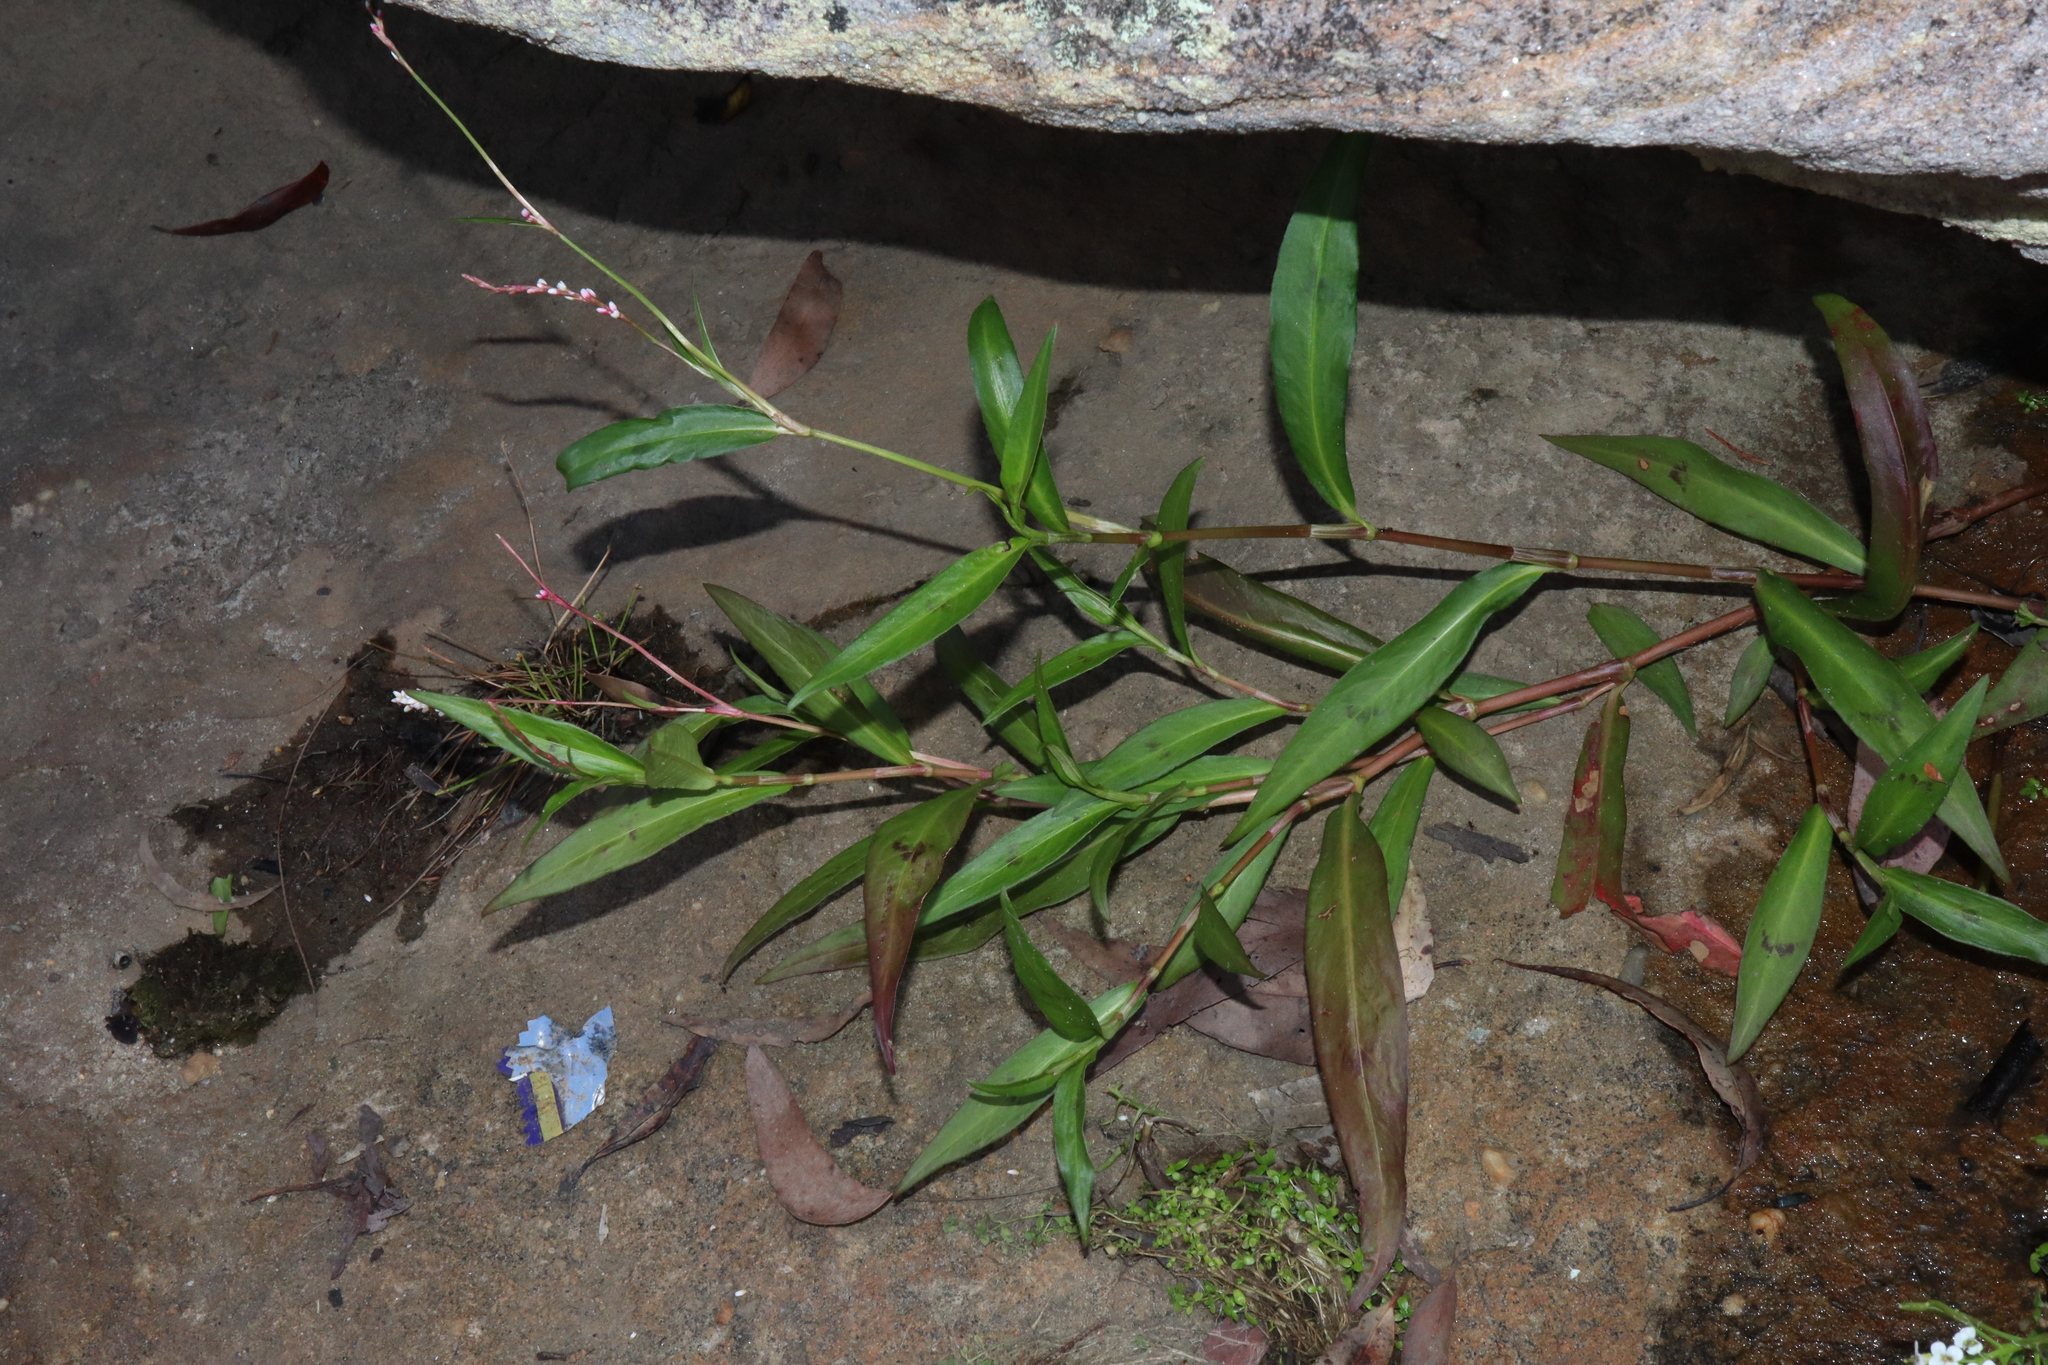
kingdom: Plantae
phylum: Tracheophyta
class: Magnoliopsida
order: Caryophyllales
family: Polygonaceae
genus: Persicaria
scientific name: Persicaria decipiens
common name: Willow-weed
